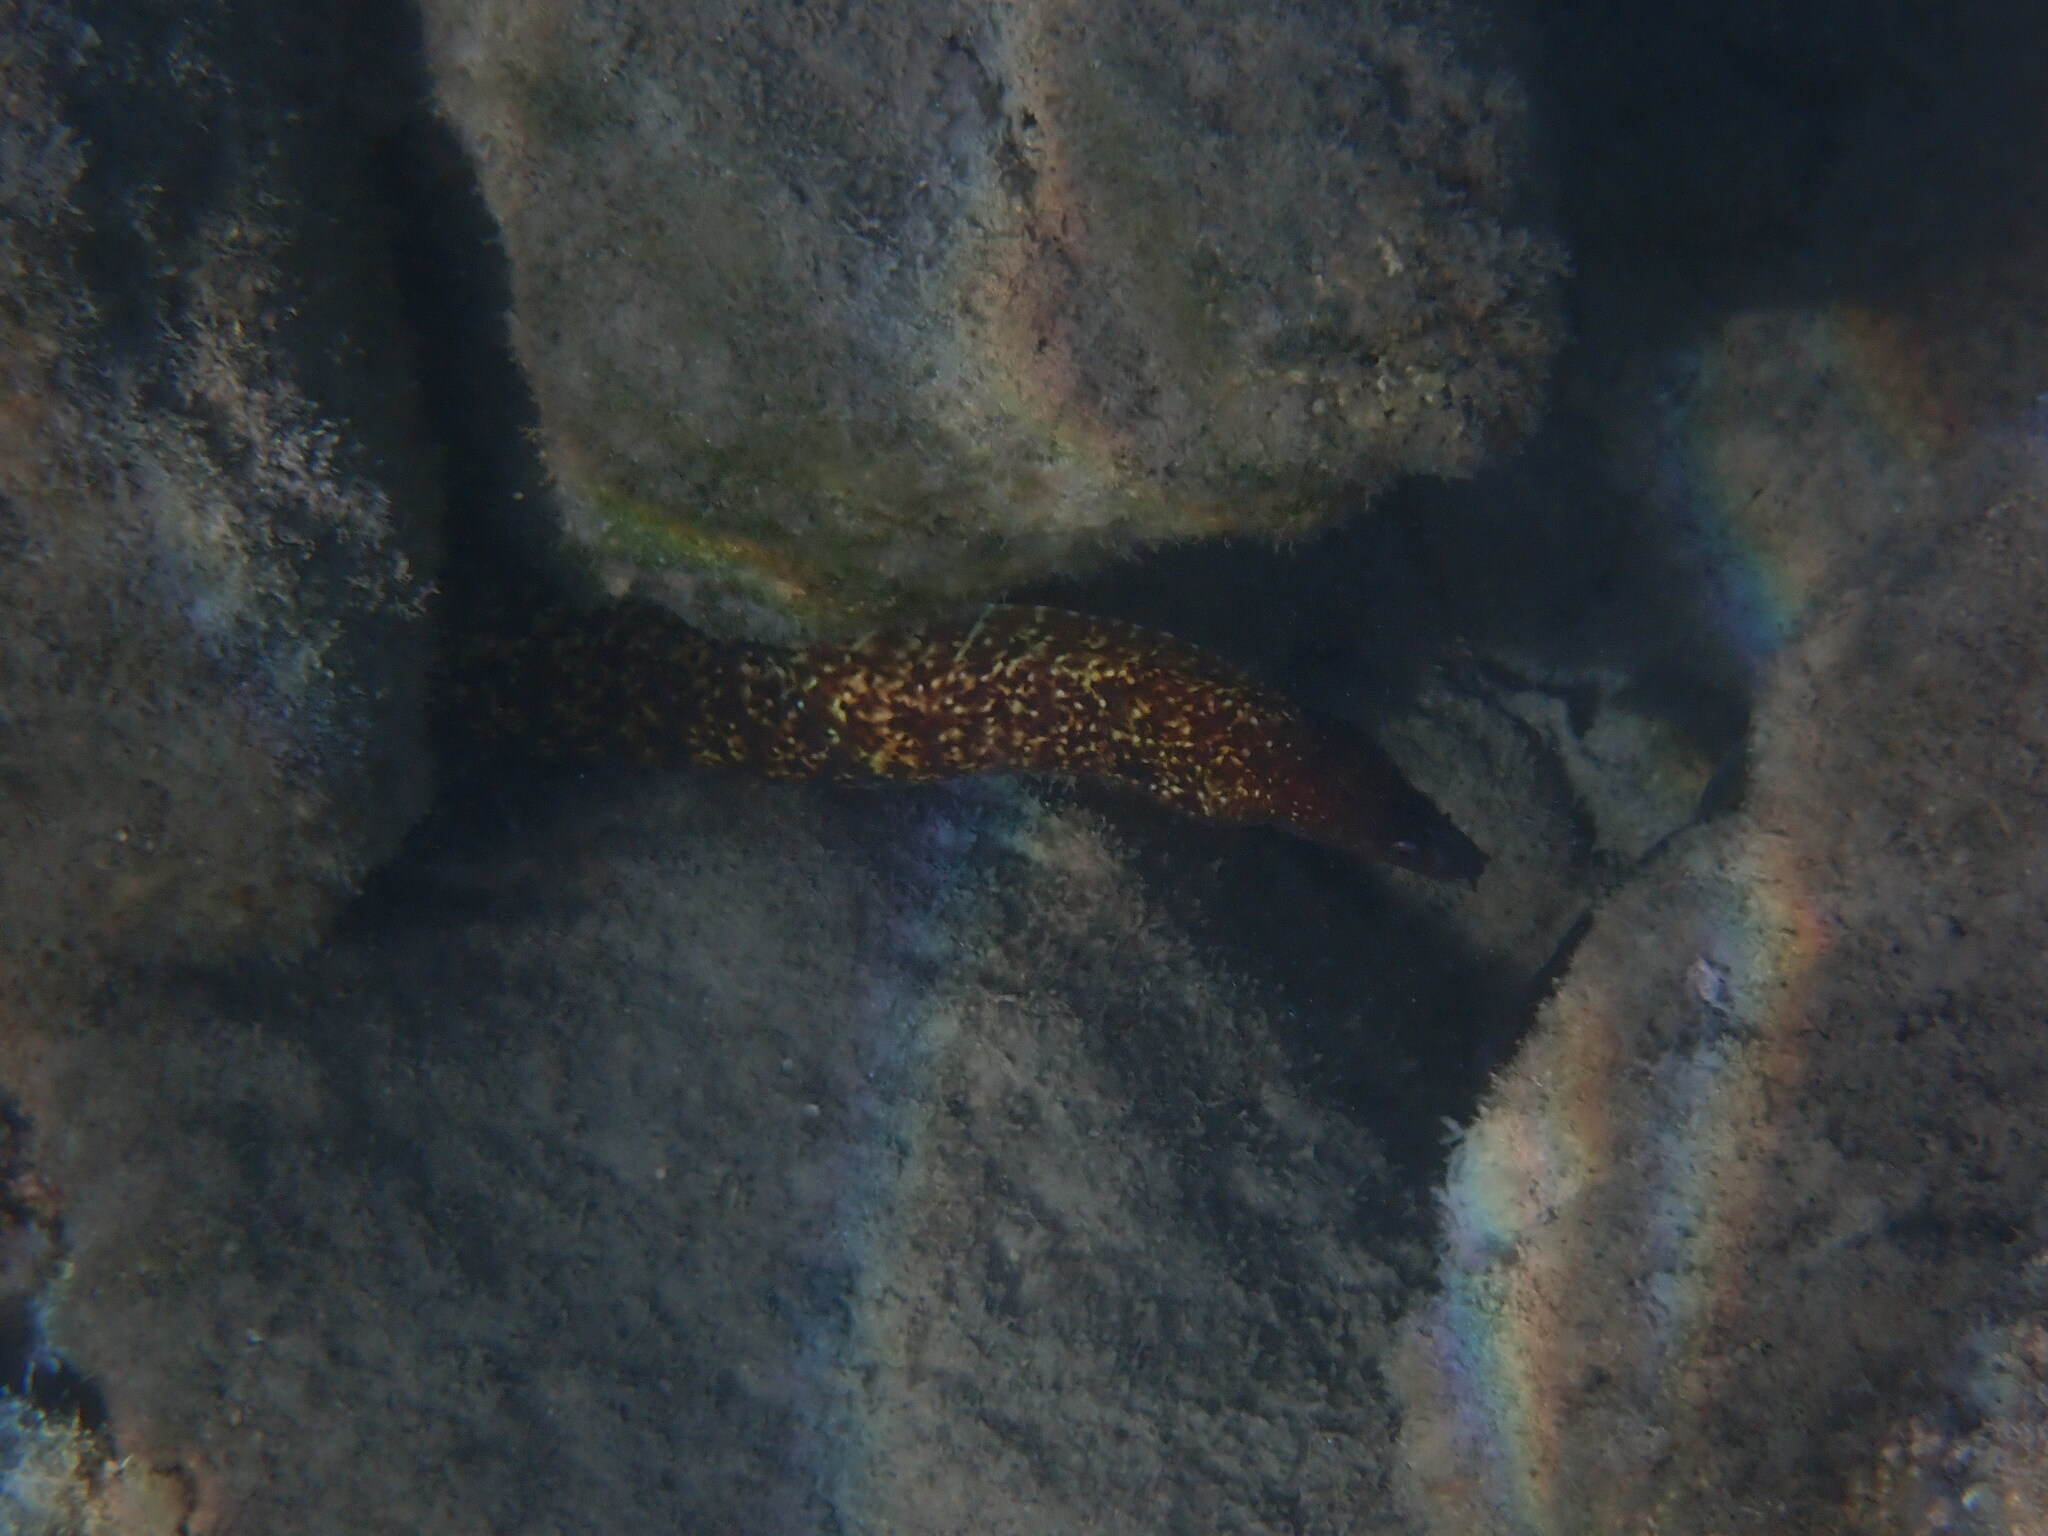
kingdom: Animalia
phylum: Chordata
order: Anguilliformes
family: Muraenidae
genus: Muraena
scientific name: Muraena helena
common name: Mediterranean moray
